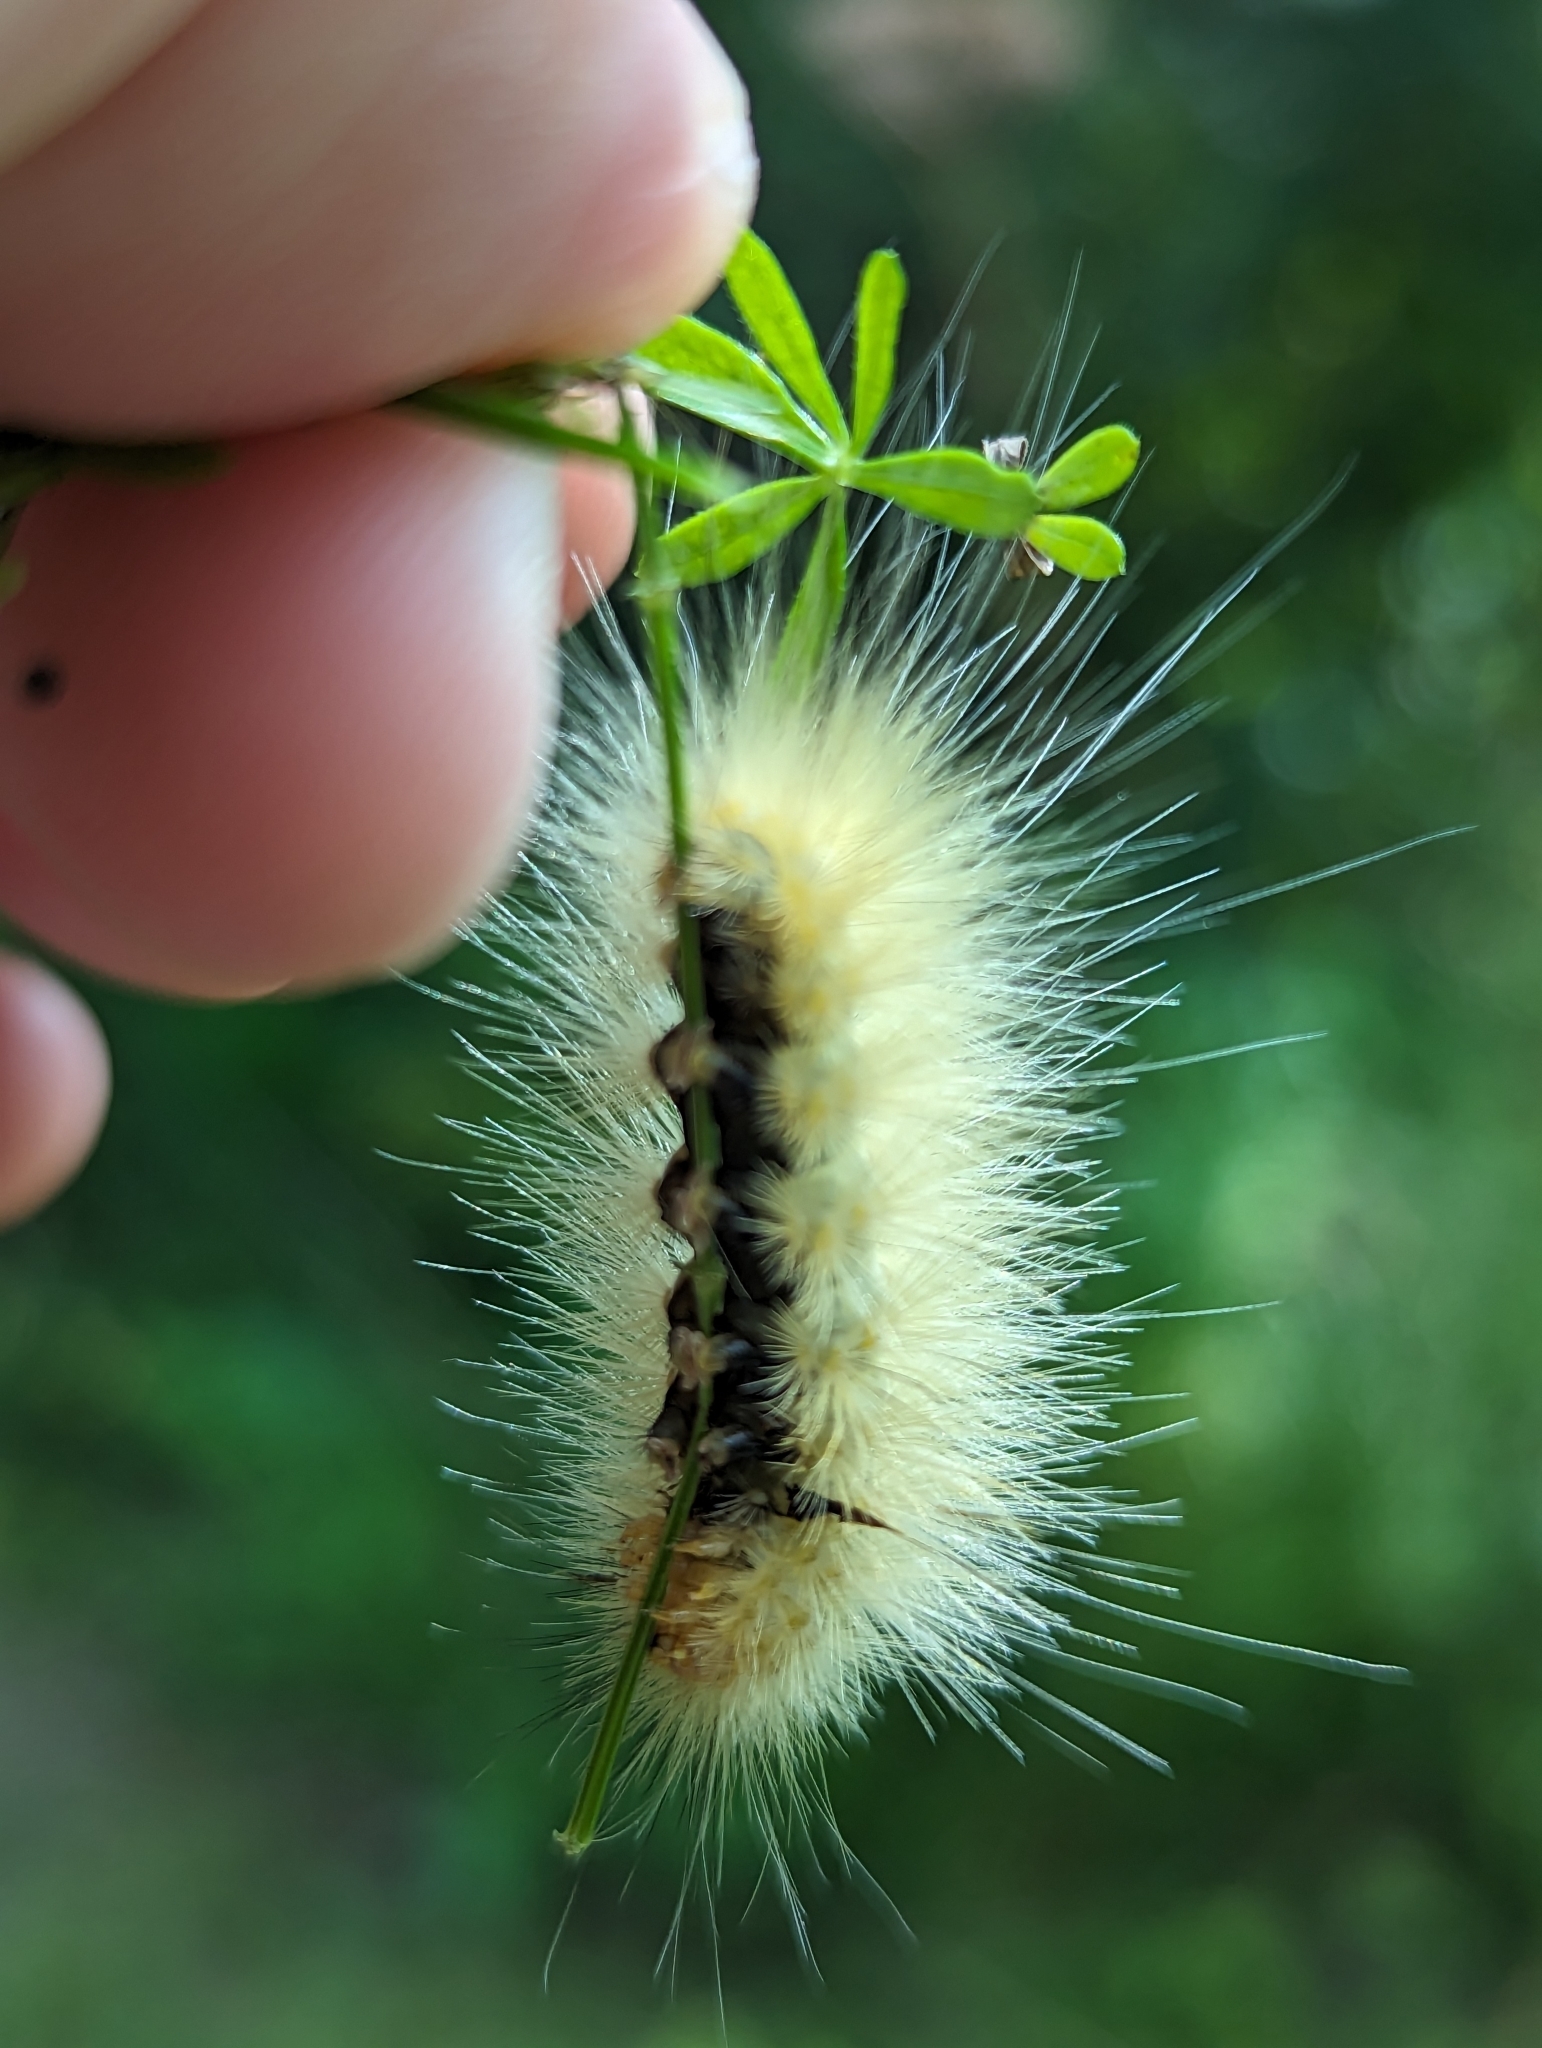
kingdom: Animalia
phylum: Arthropoda
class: Insecta
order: Lepidoptera
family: Erebidae
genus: Spilosoma
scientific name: Spilosoma virginica
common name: Virginia tiger moth
